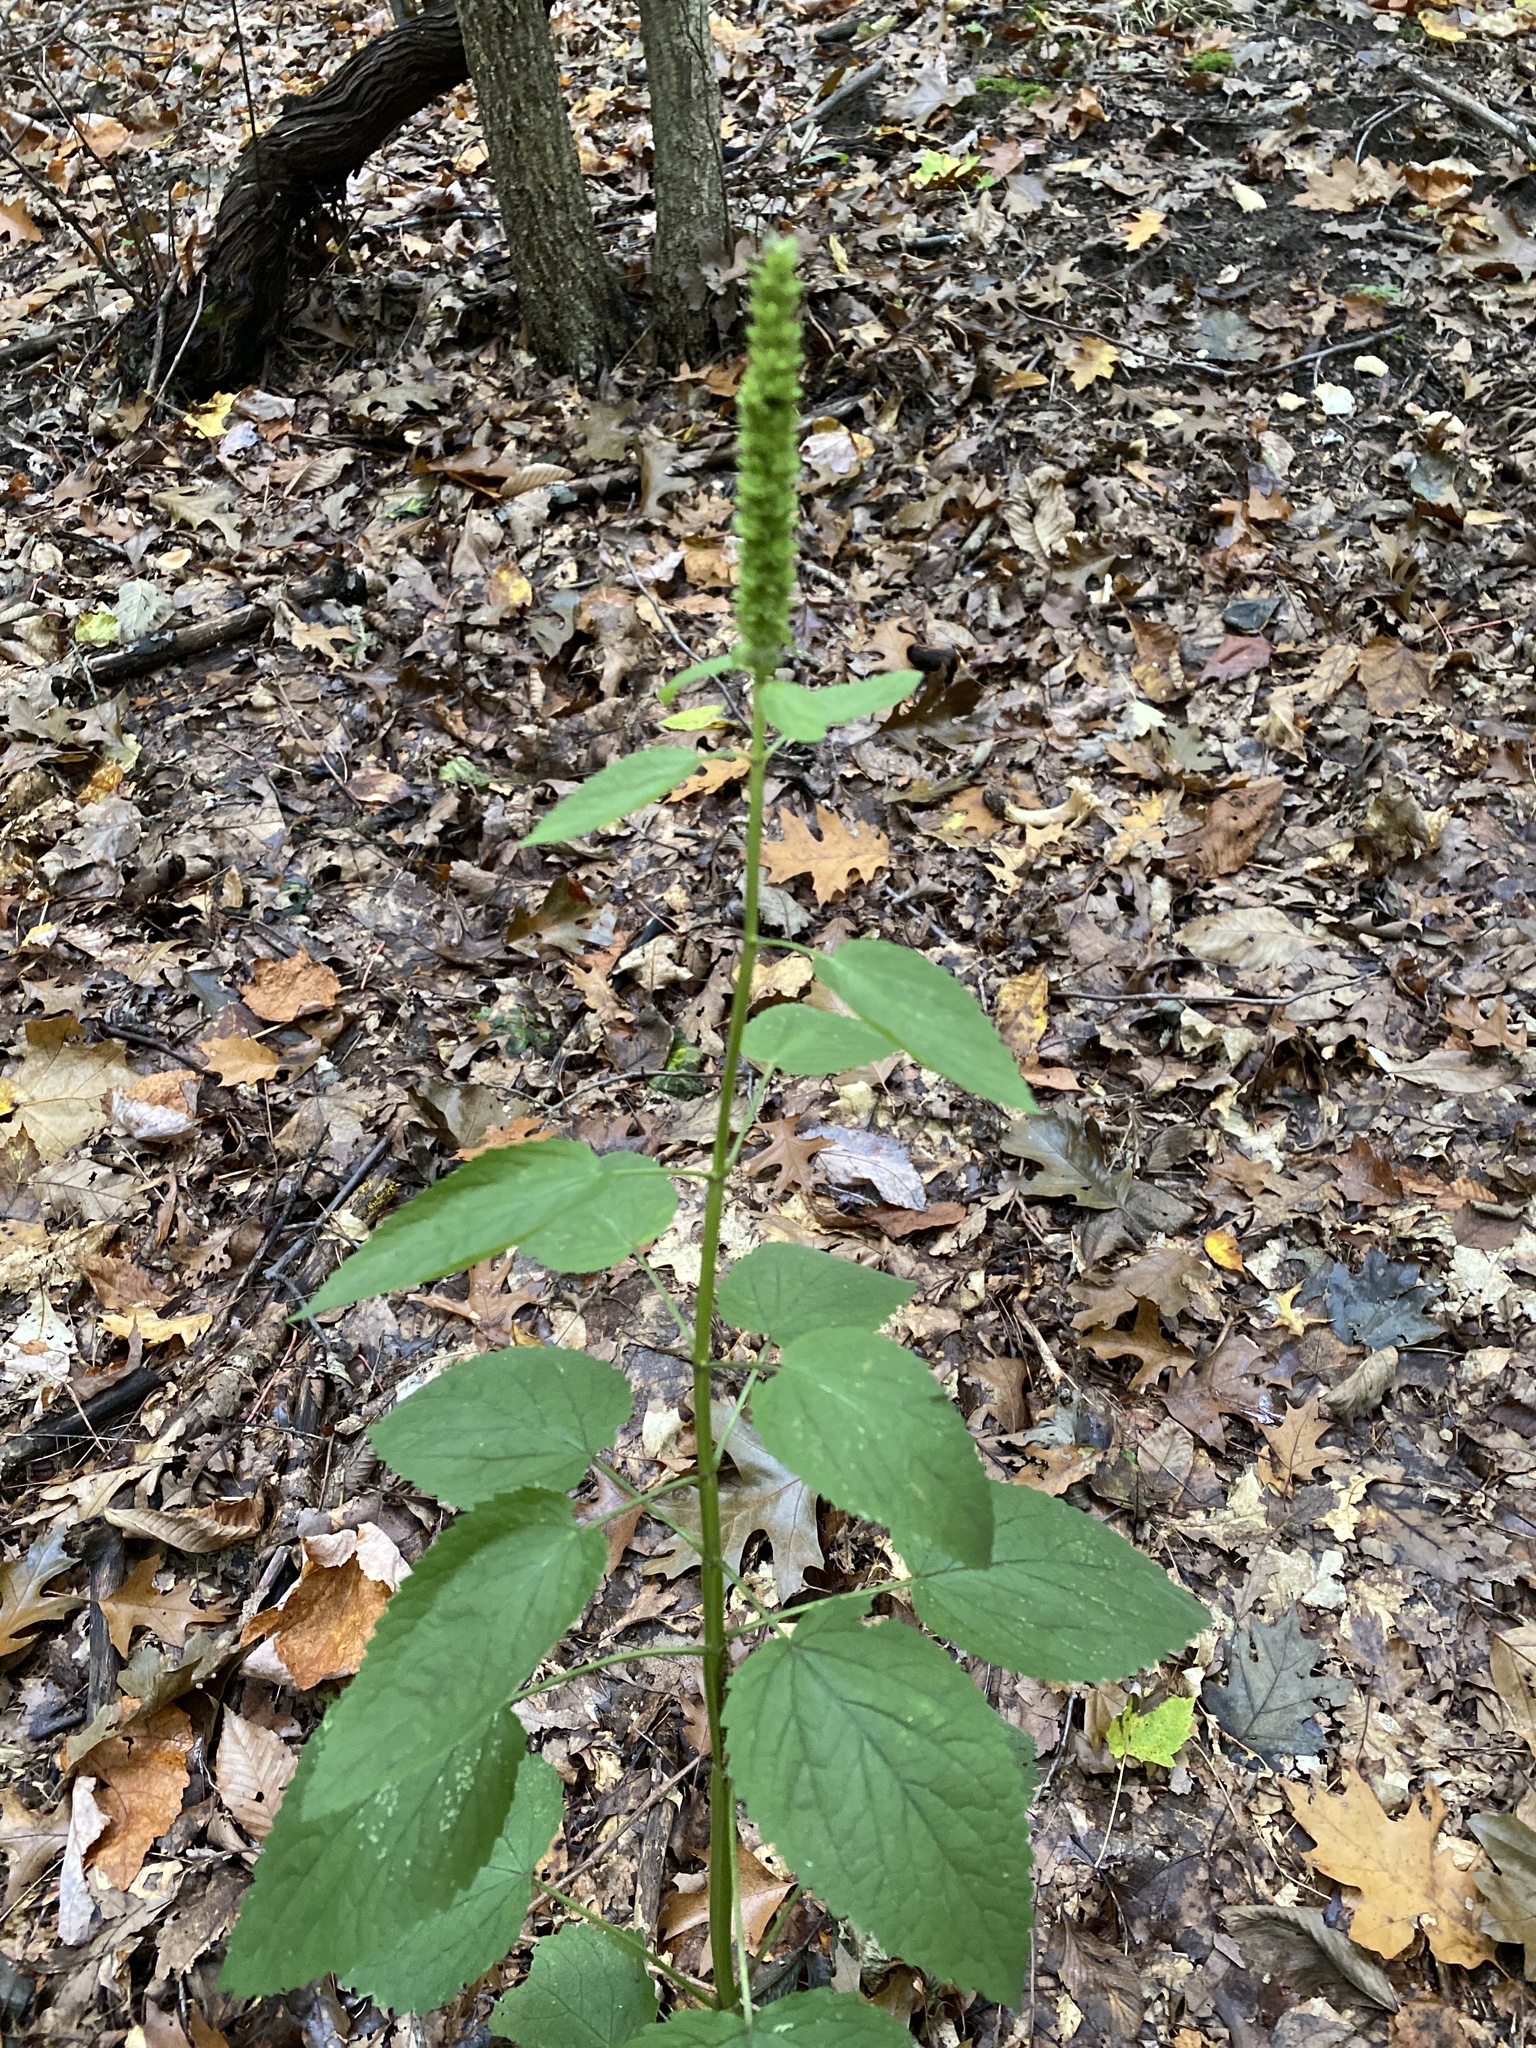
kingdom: Plantae
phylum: Tracheophyta
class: Magnoliopsida
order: Lamiales
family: Lamiaceae
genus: Agastache
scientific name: Agastache nepetoides
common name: Catnip giant hyssop
